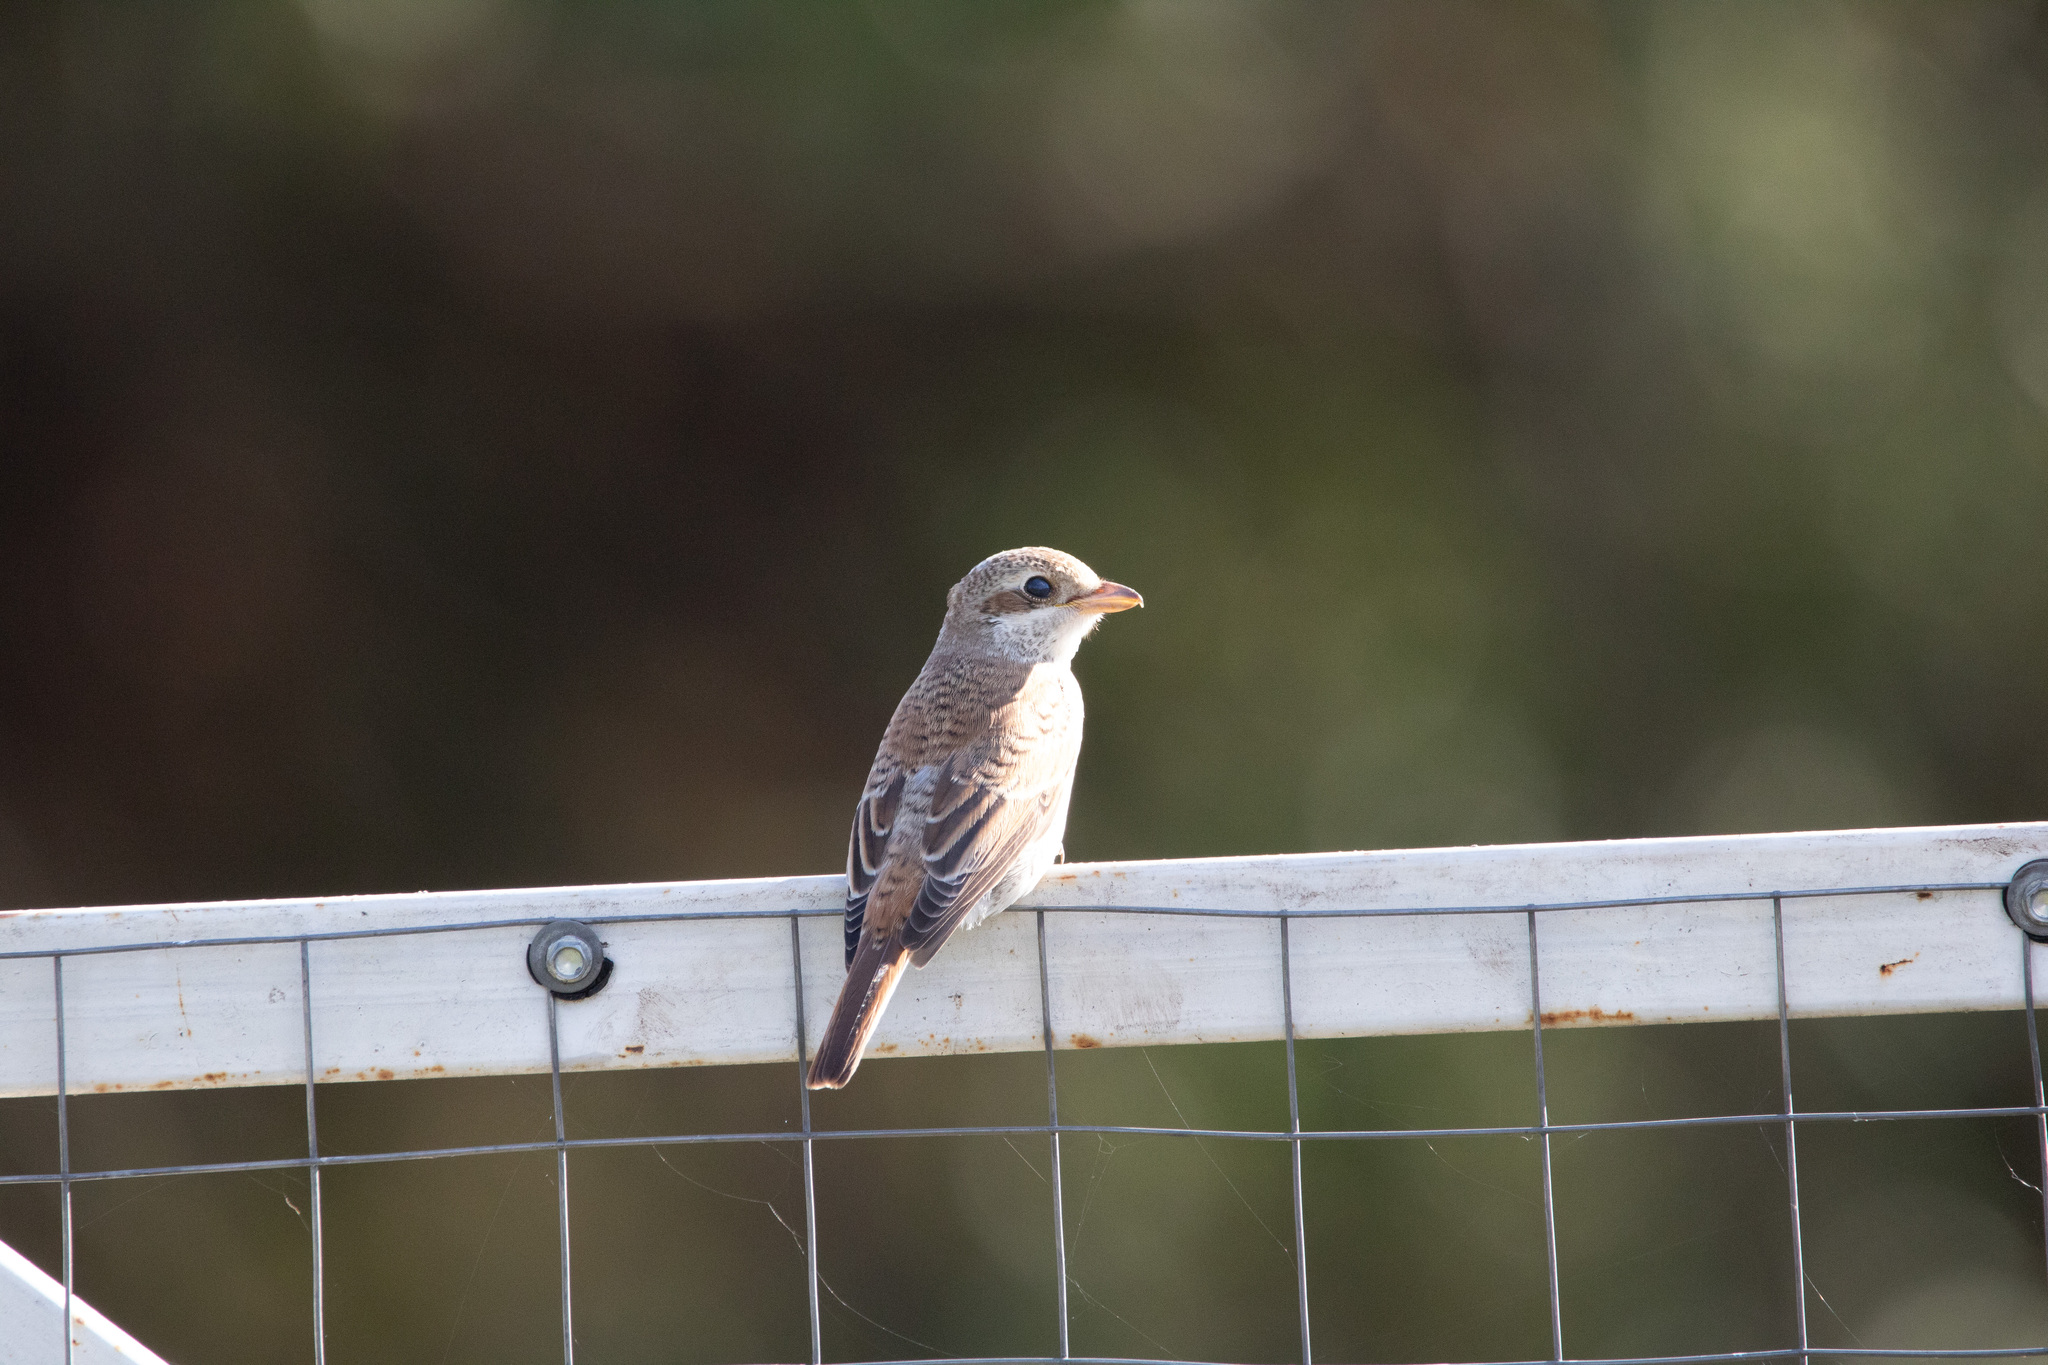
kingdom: Animalia
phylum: Chordata
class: Aves
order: Passeriformes
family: Laniidae
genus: Lanius
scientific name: Lanius collurio
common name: Red-backed shrike
